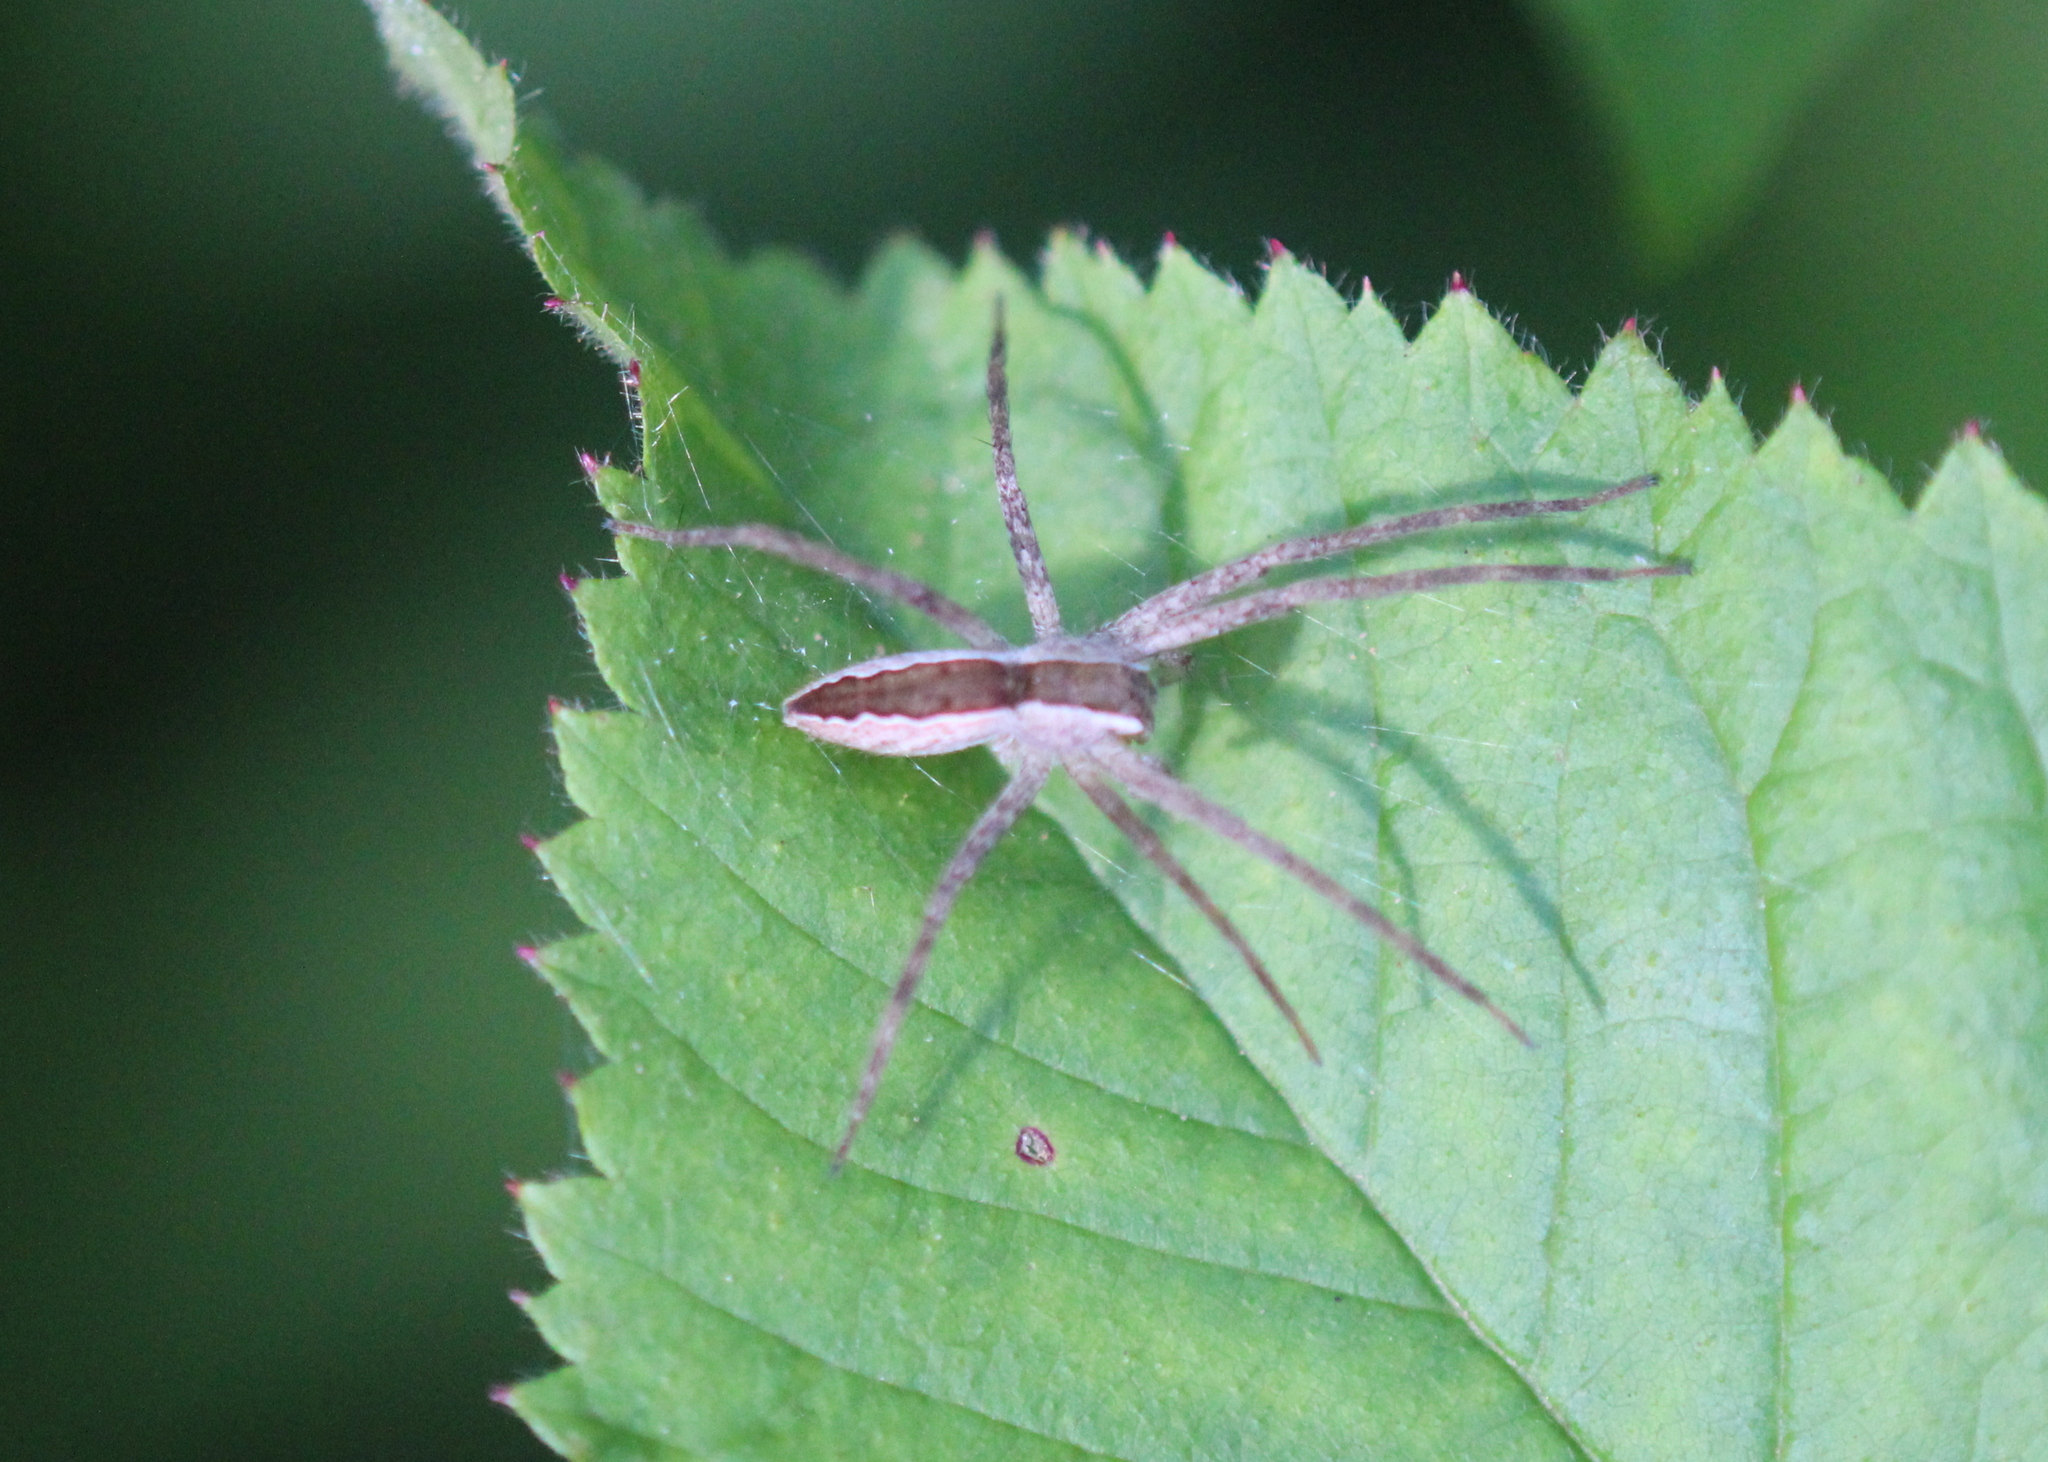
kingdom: Animalia
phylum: Arthropoda
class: Arachnida
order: Araneae
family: Pisauridae
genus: Pisaurina
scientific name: Pisaurina mira
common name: American nursery web spider
